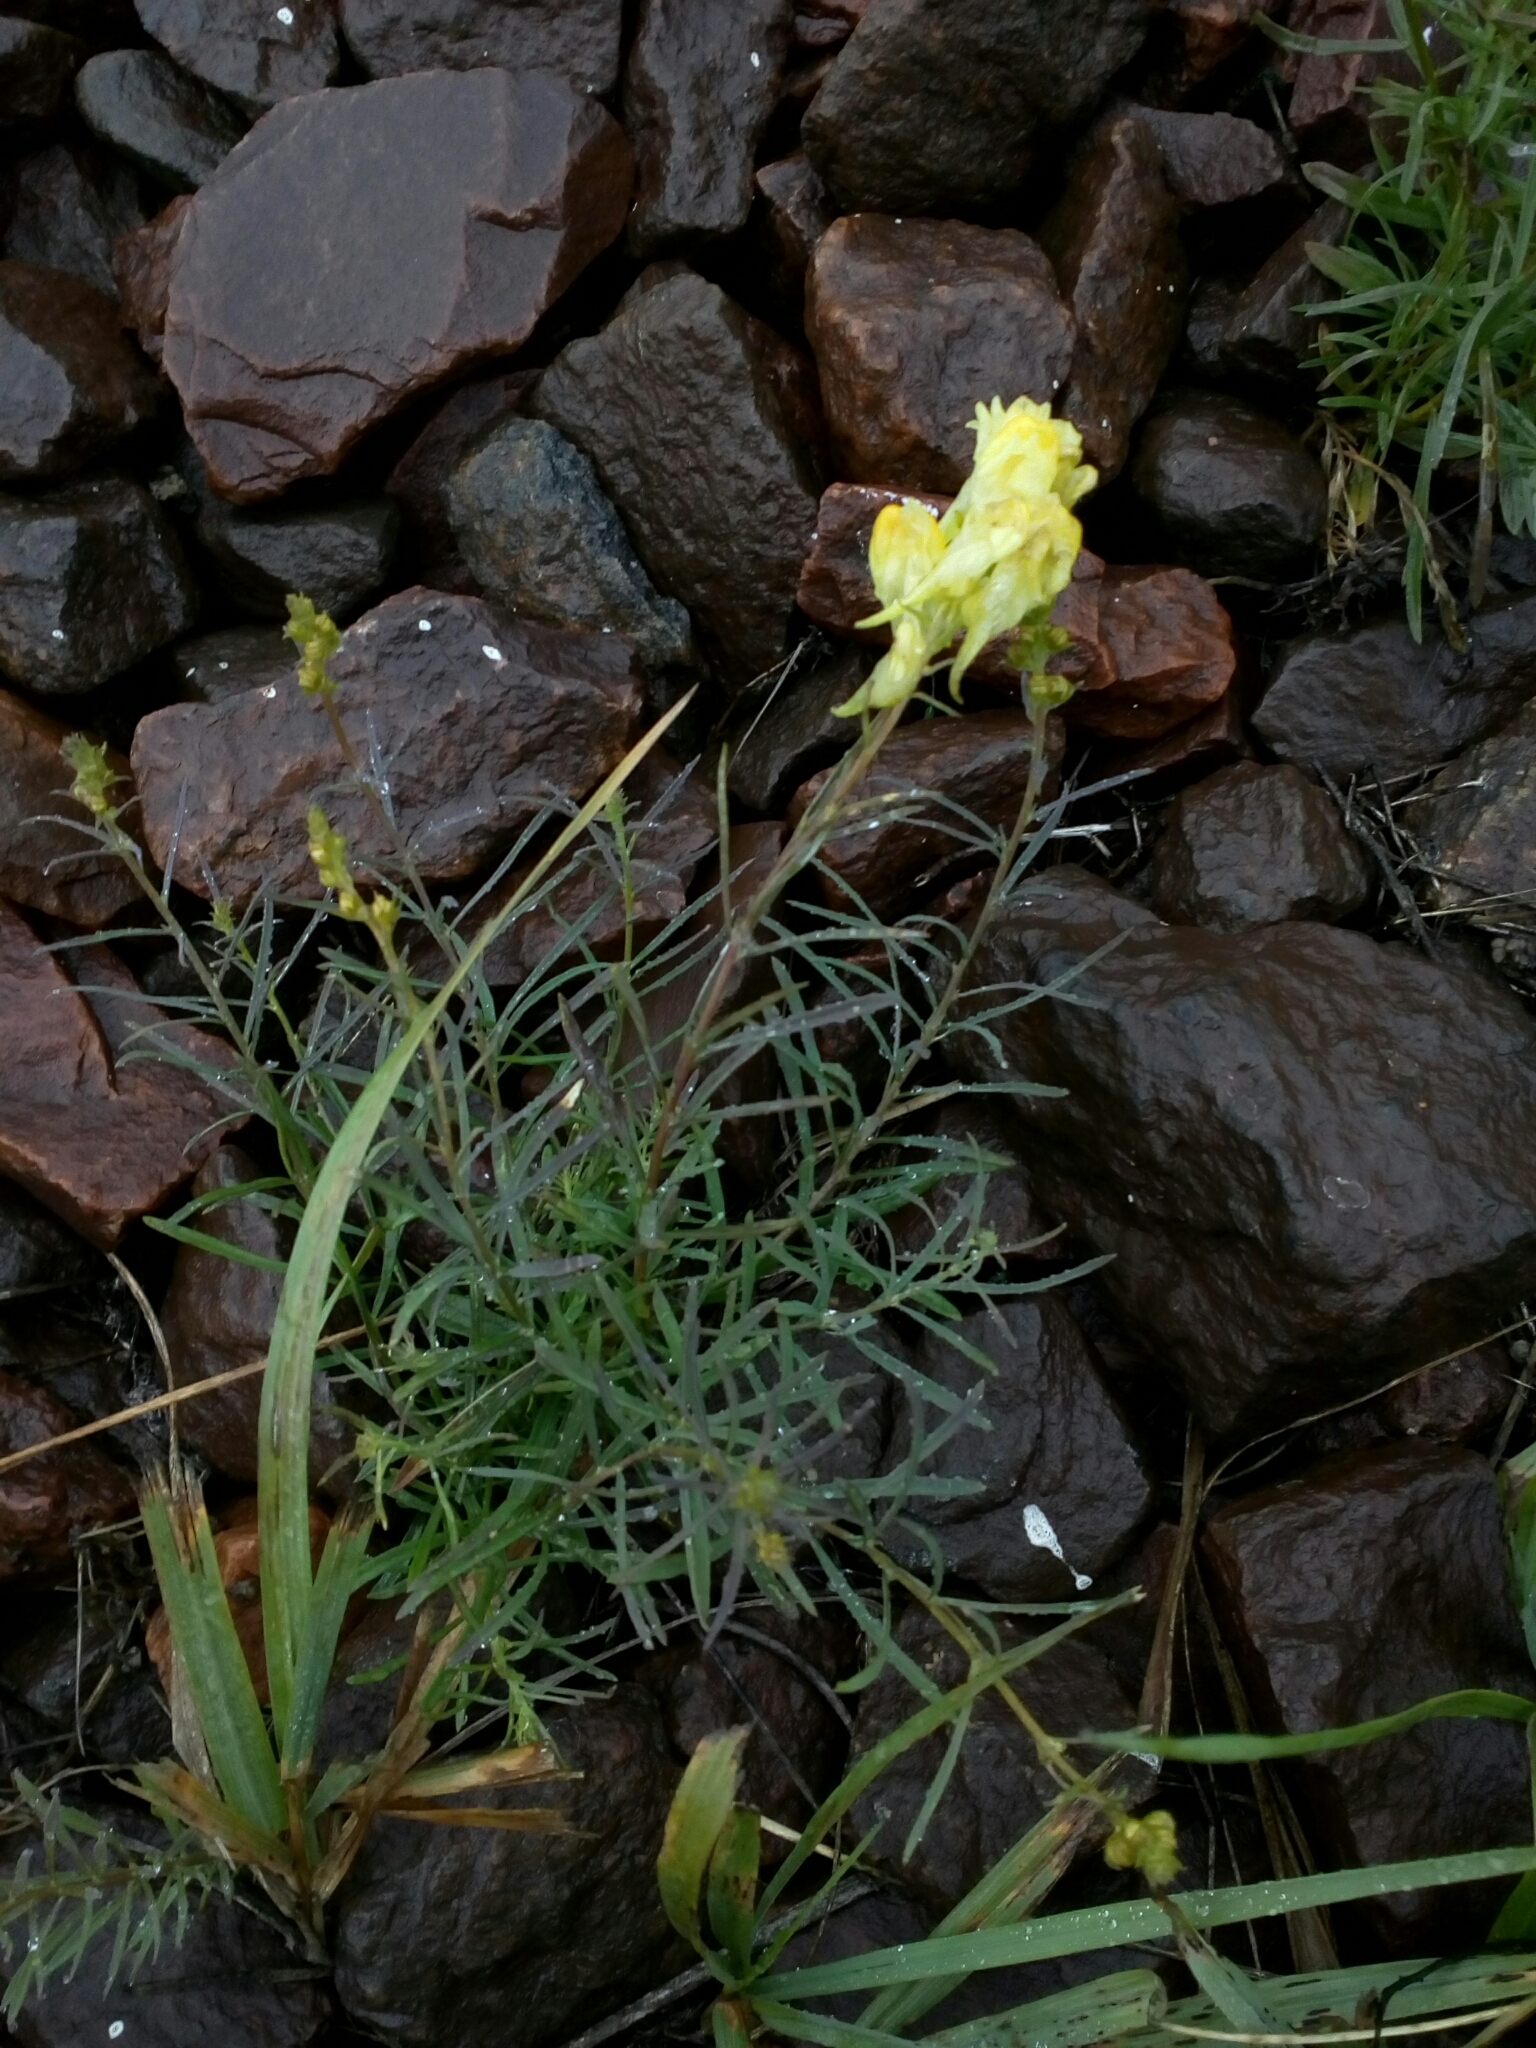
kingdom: Plantae
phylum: Tracheophyta
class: Magnoliopsida
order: Lamiales
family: Plantaginaceae
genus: Linaria
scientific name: Linaria vulgaris
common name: Butter and eggs
